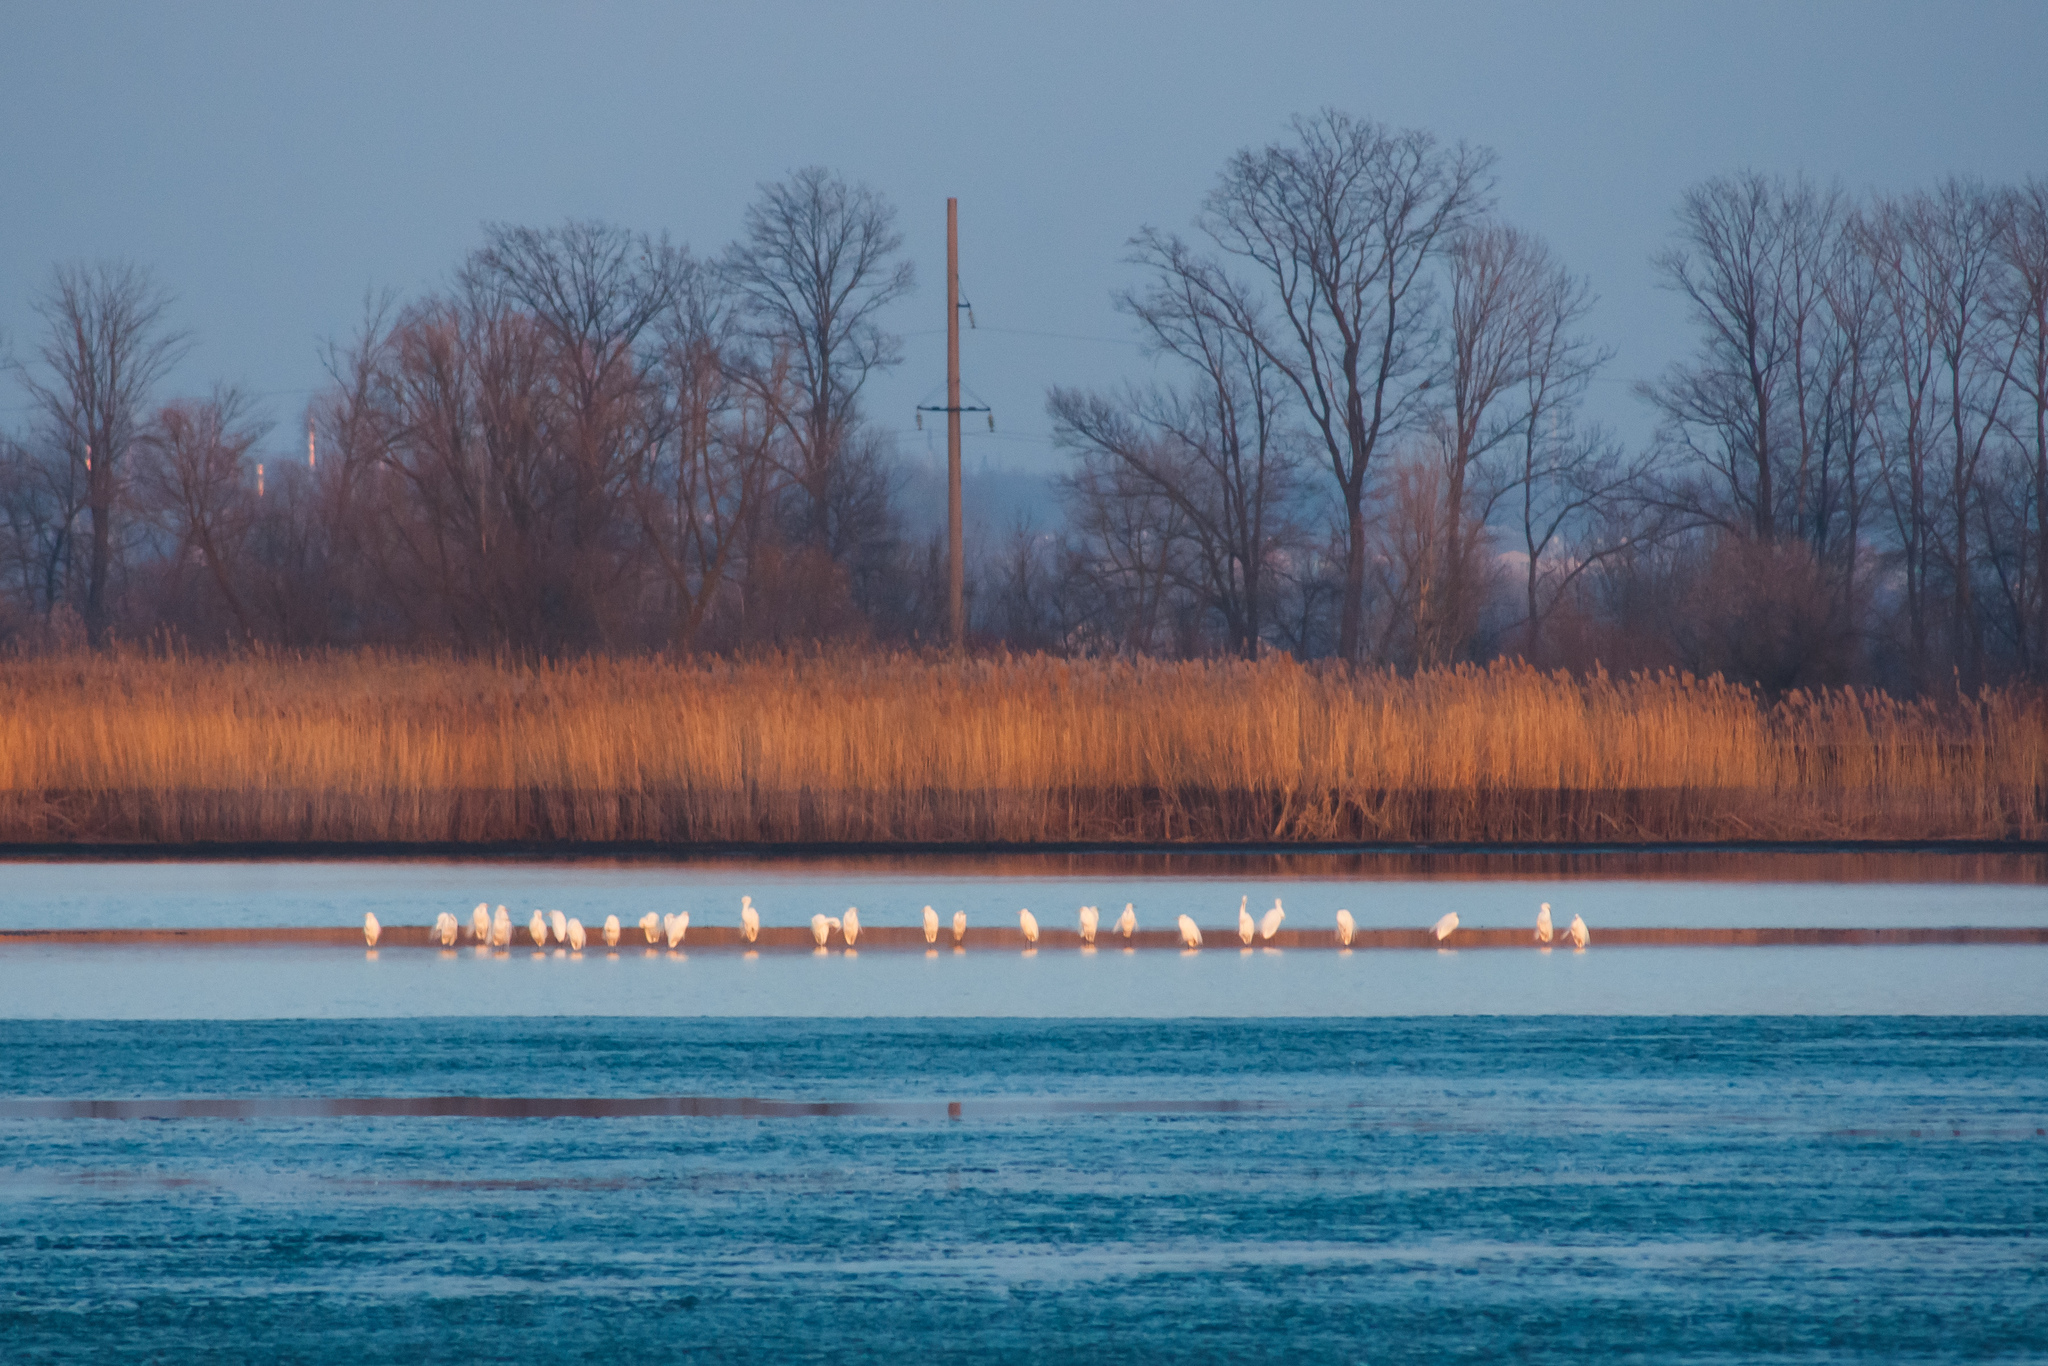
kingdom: Animalia
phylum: Chordata
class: Aves
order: Pelecaniformes
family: Ardeidae
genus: Ardea
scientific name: Ardea alba
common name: Great egret
